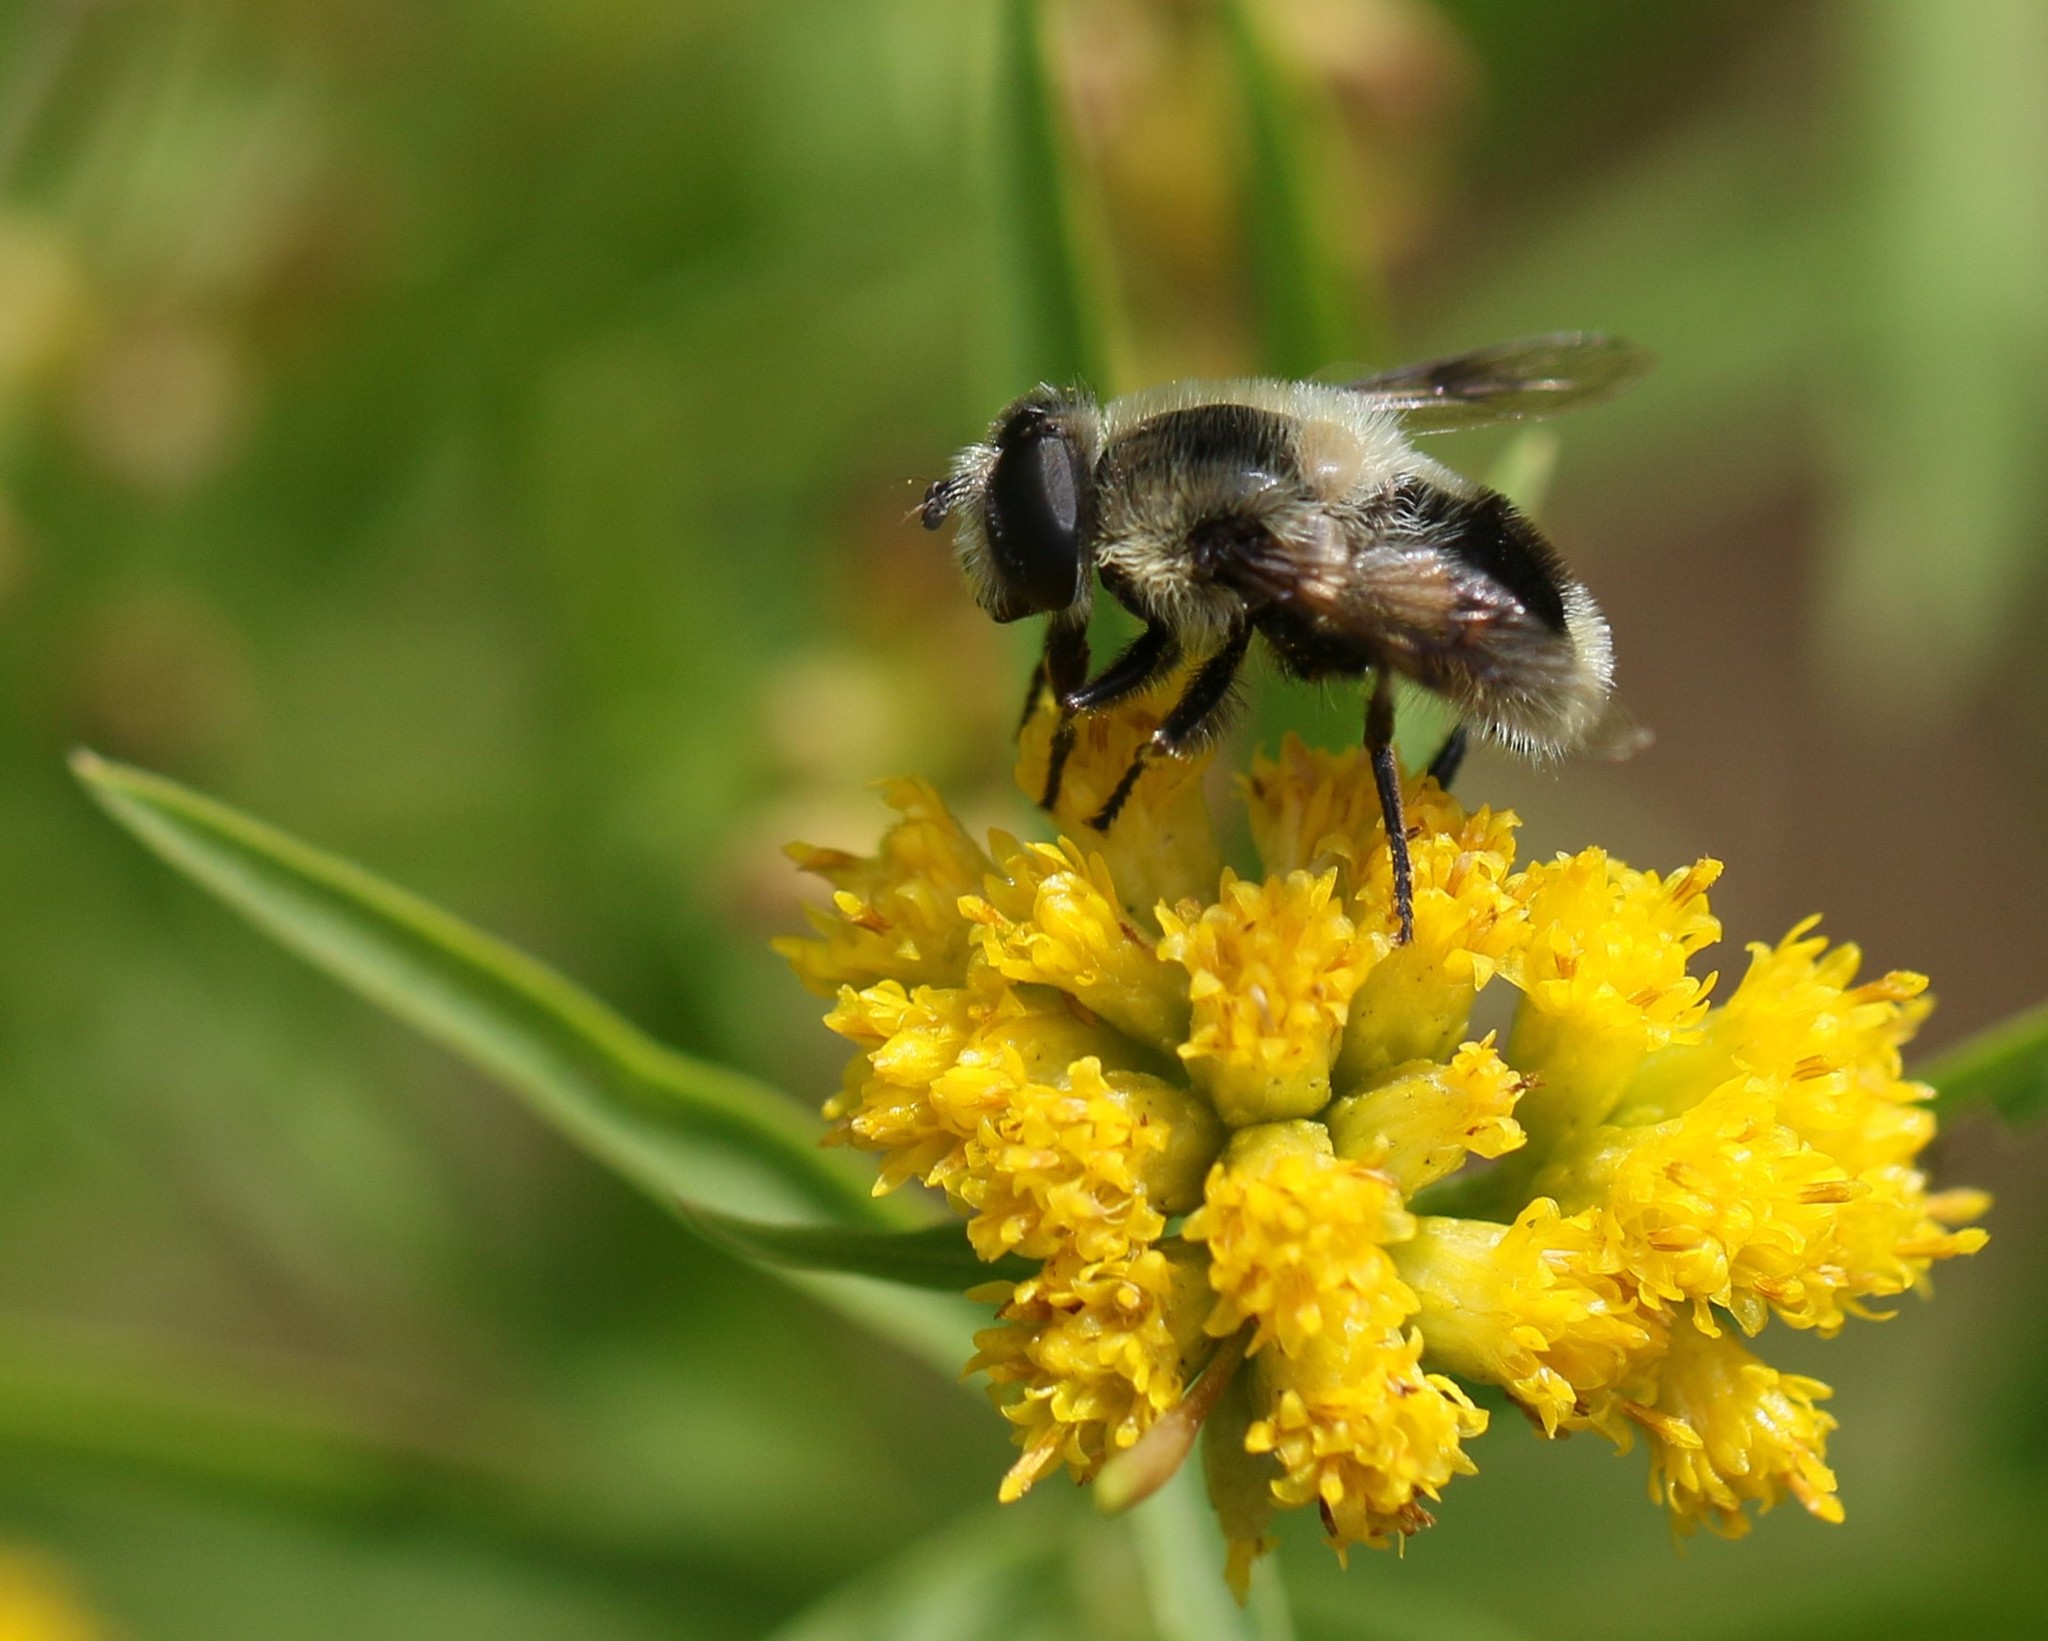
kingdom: Animalia
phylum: Arthropoda
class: Insecta
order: Diptera
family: Syrphidae
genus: Eristalis
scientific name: Eristalis anthophorina
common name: Orange-spotted drone fly
